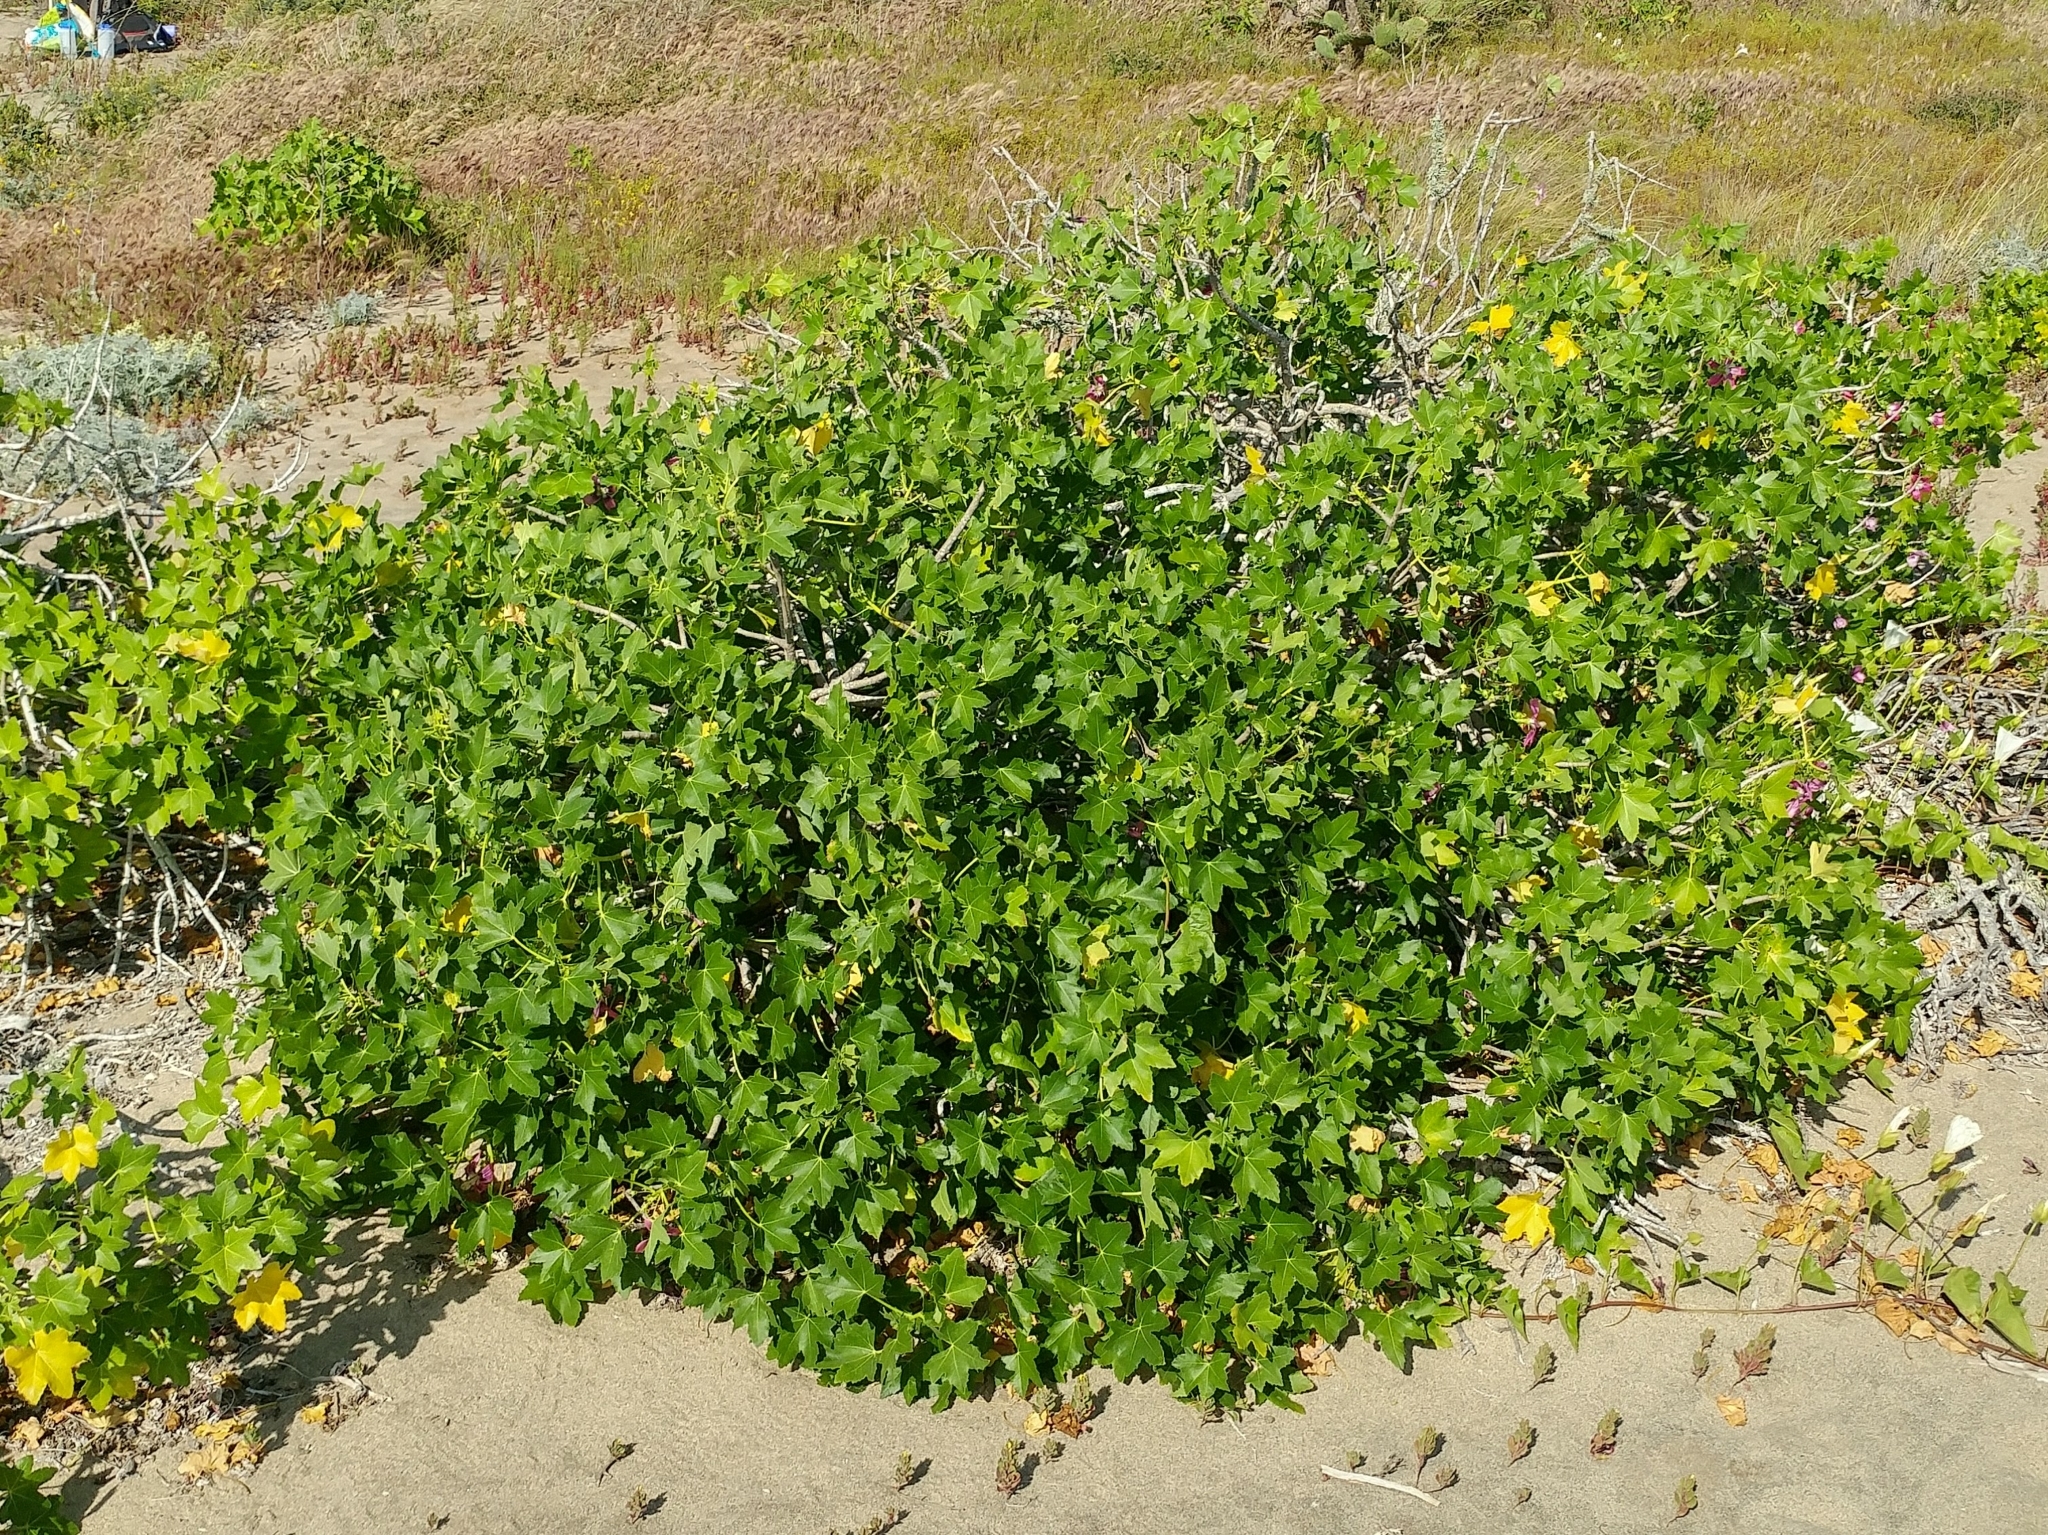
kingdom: Plantae
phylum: Tracheophyta
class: Magnoliopsida
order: Malvales
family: Malvaceae
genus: Malva
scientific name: Malva assurgentiflora
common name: Island mallow
